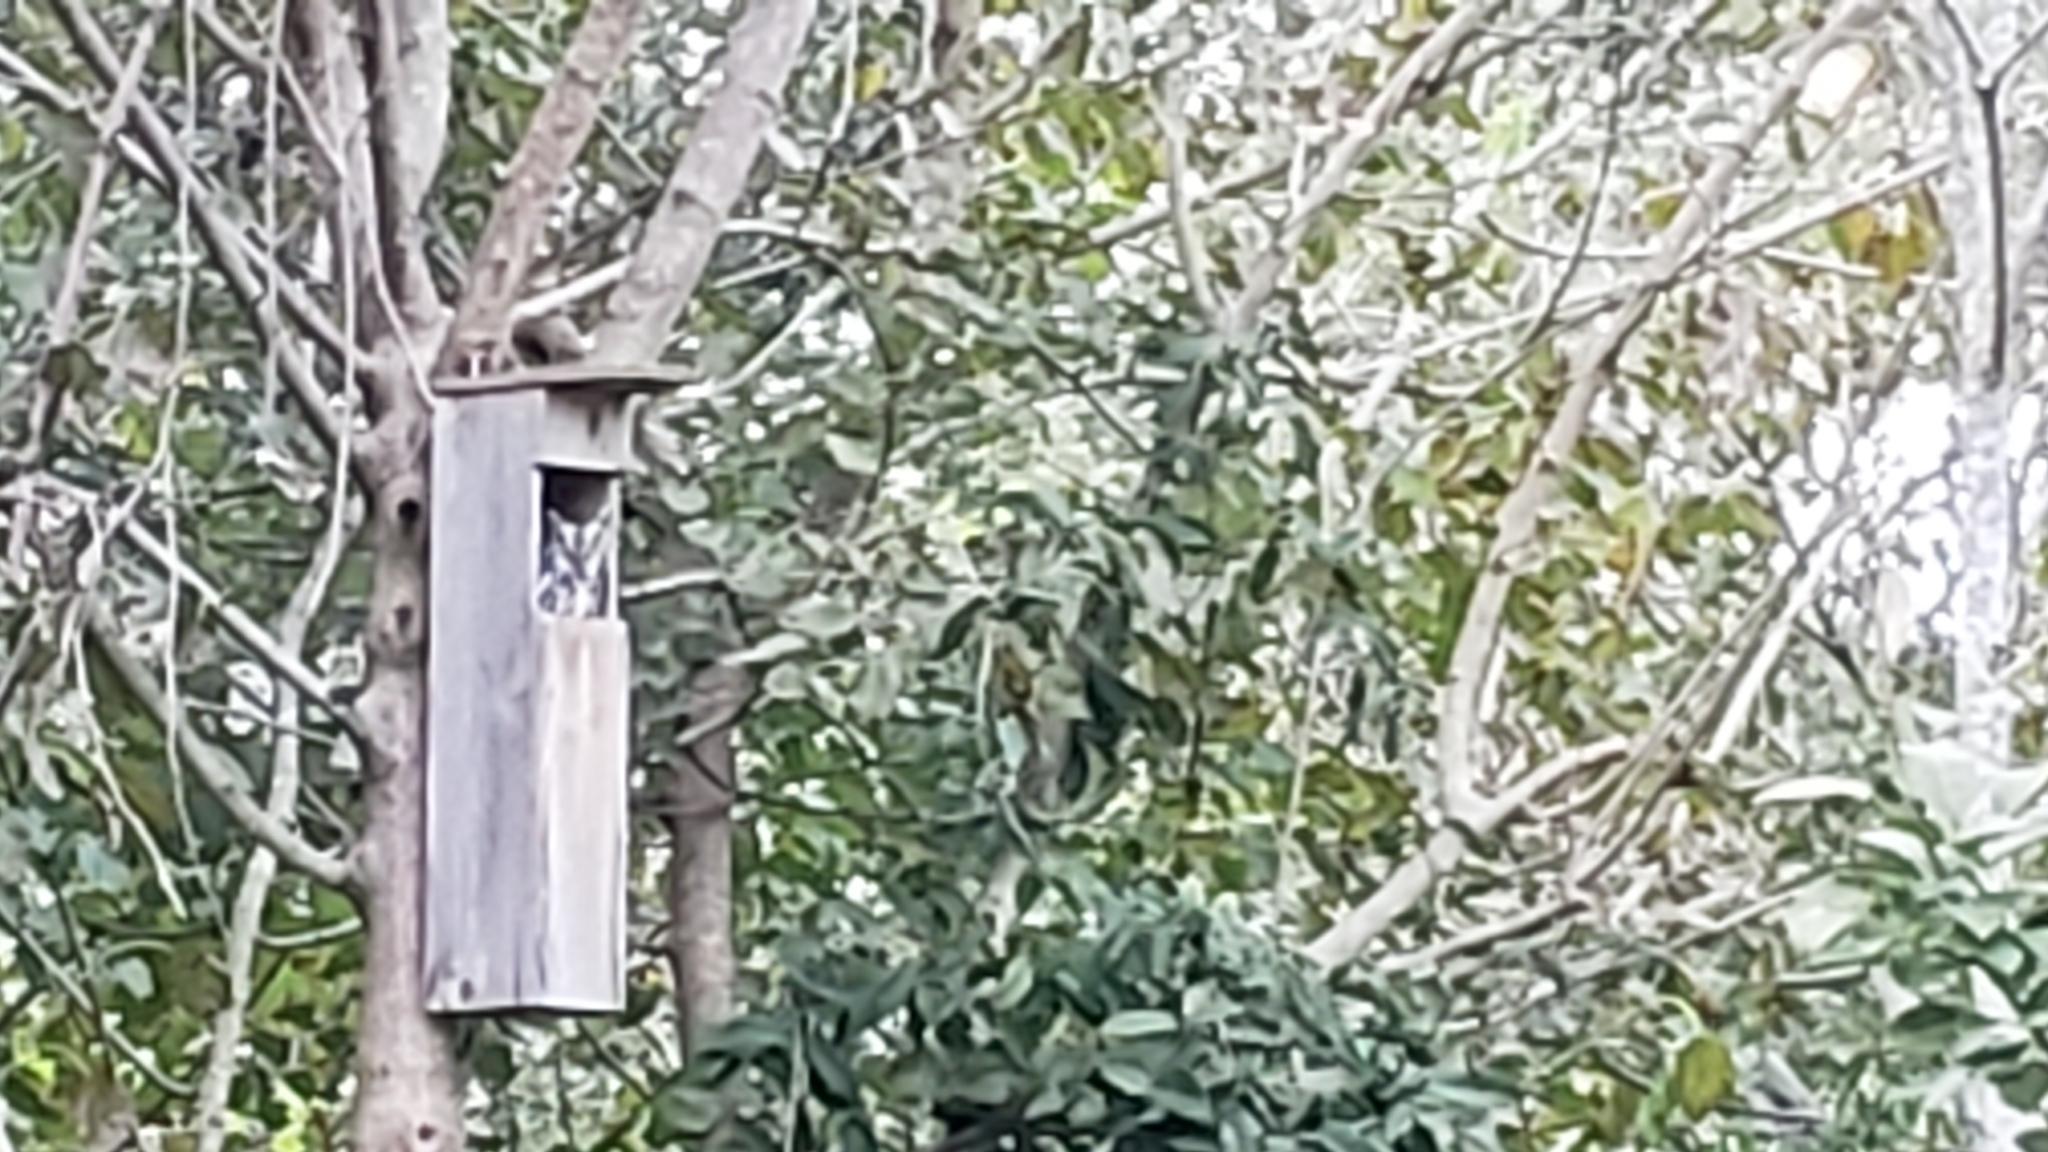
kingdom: Animalia
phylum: Chordata
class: Aves
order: Strigiformes
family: Strigidae
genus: Megascops
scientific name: Megascops asio
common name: Eastern screech-owl
